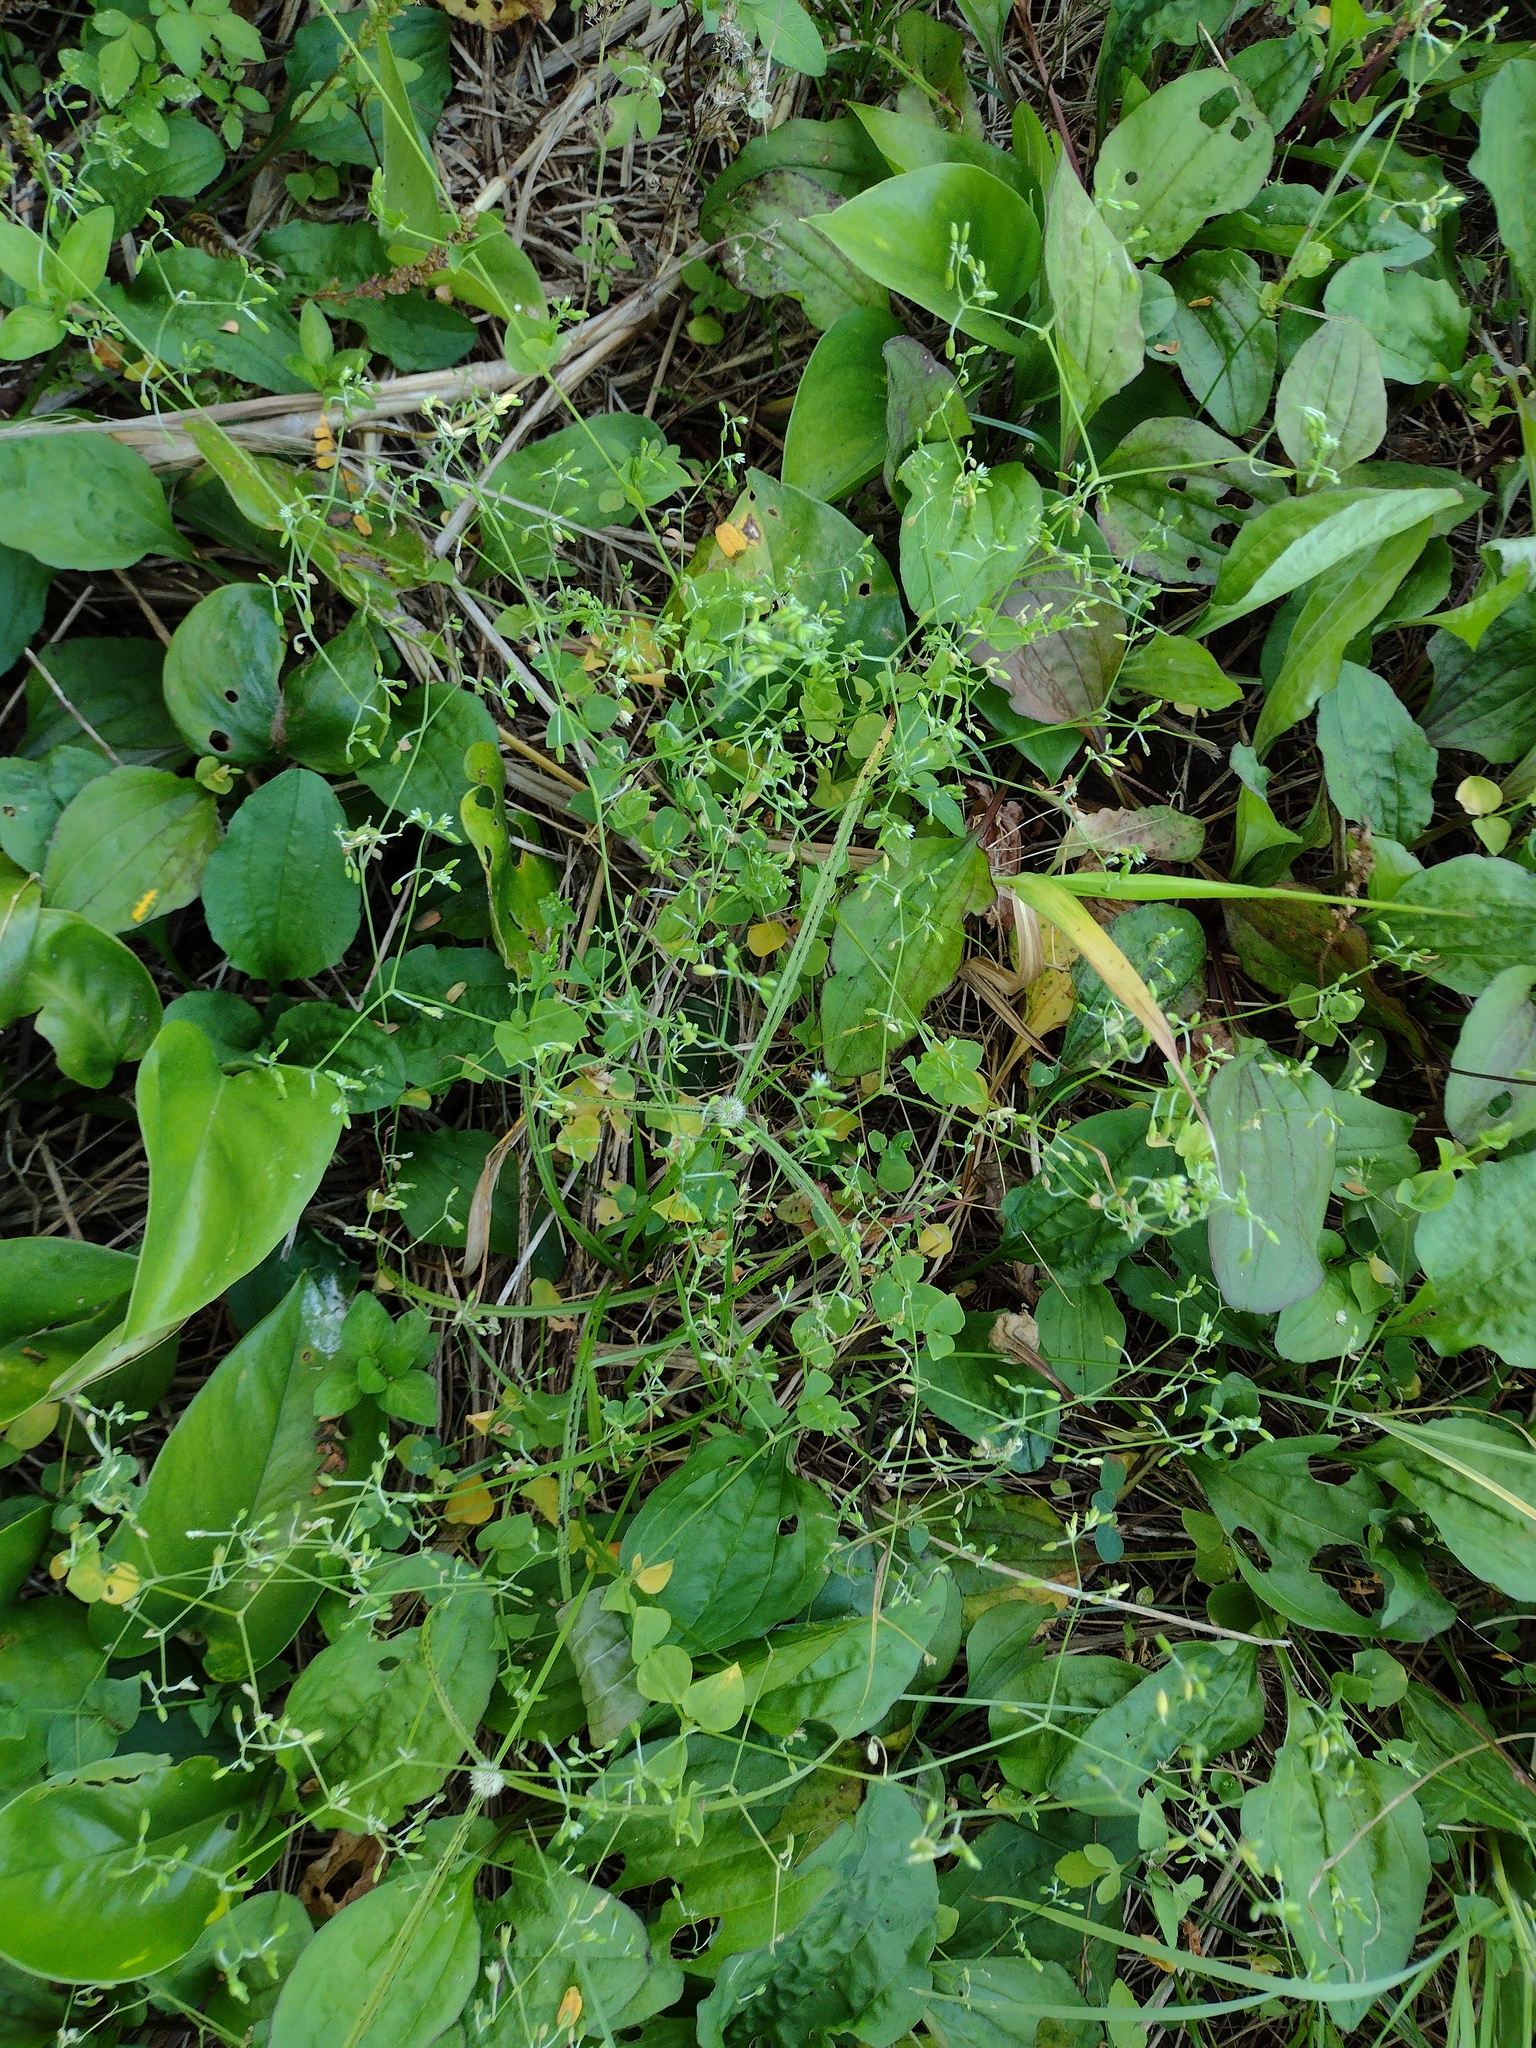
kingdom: Plantae
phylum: Tracheophyta
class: Magnoliopsida
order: Caryophyllales
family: Caryophyllaceae
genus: Drymaria
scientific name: Drymaria cordata
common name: Whitesnow
